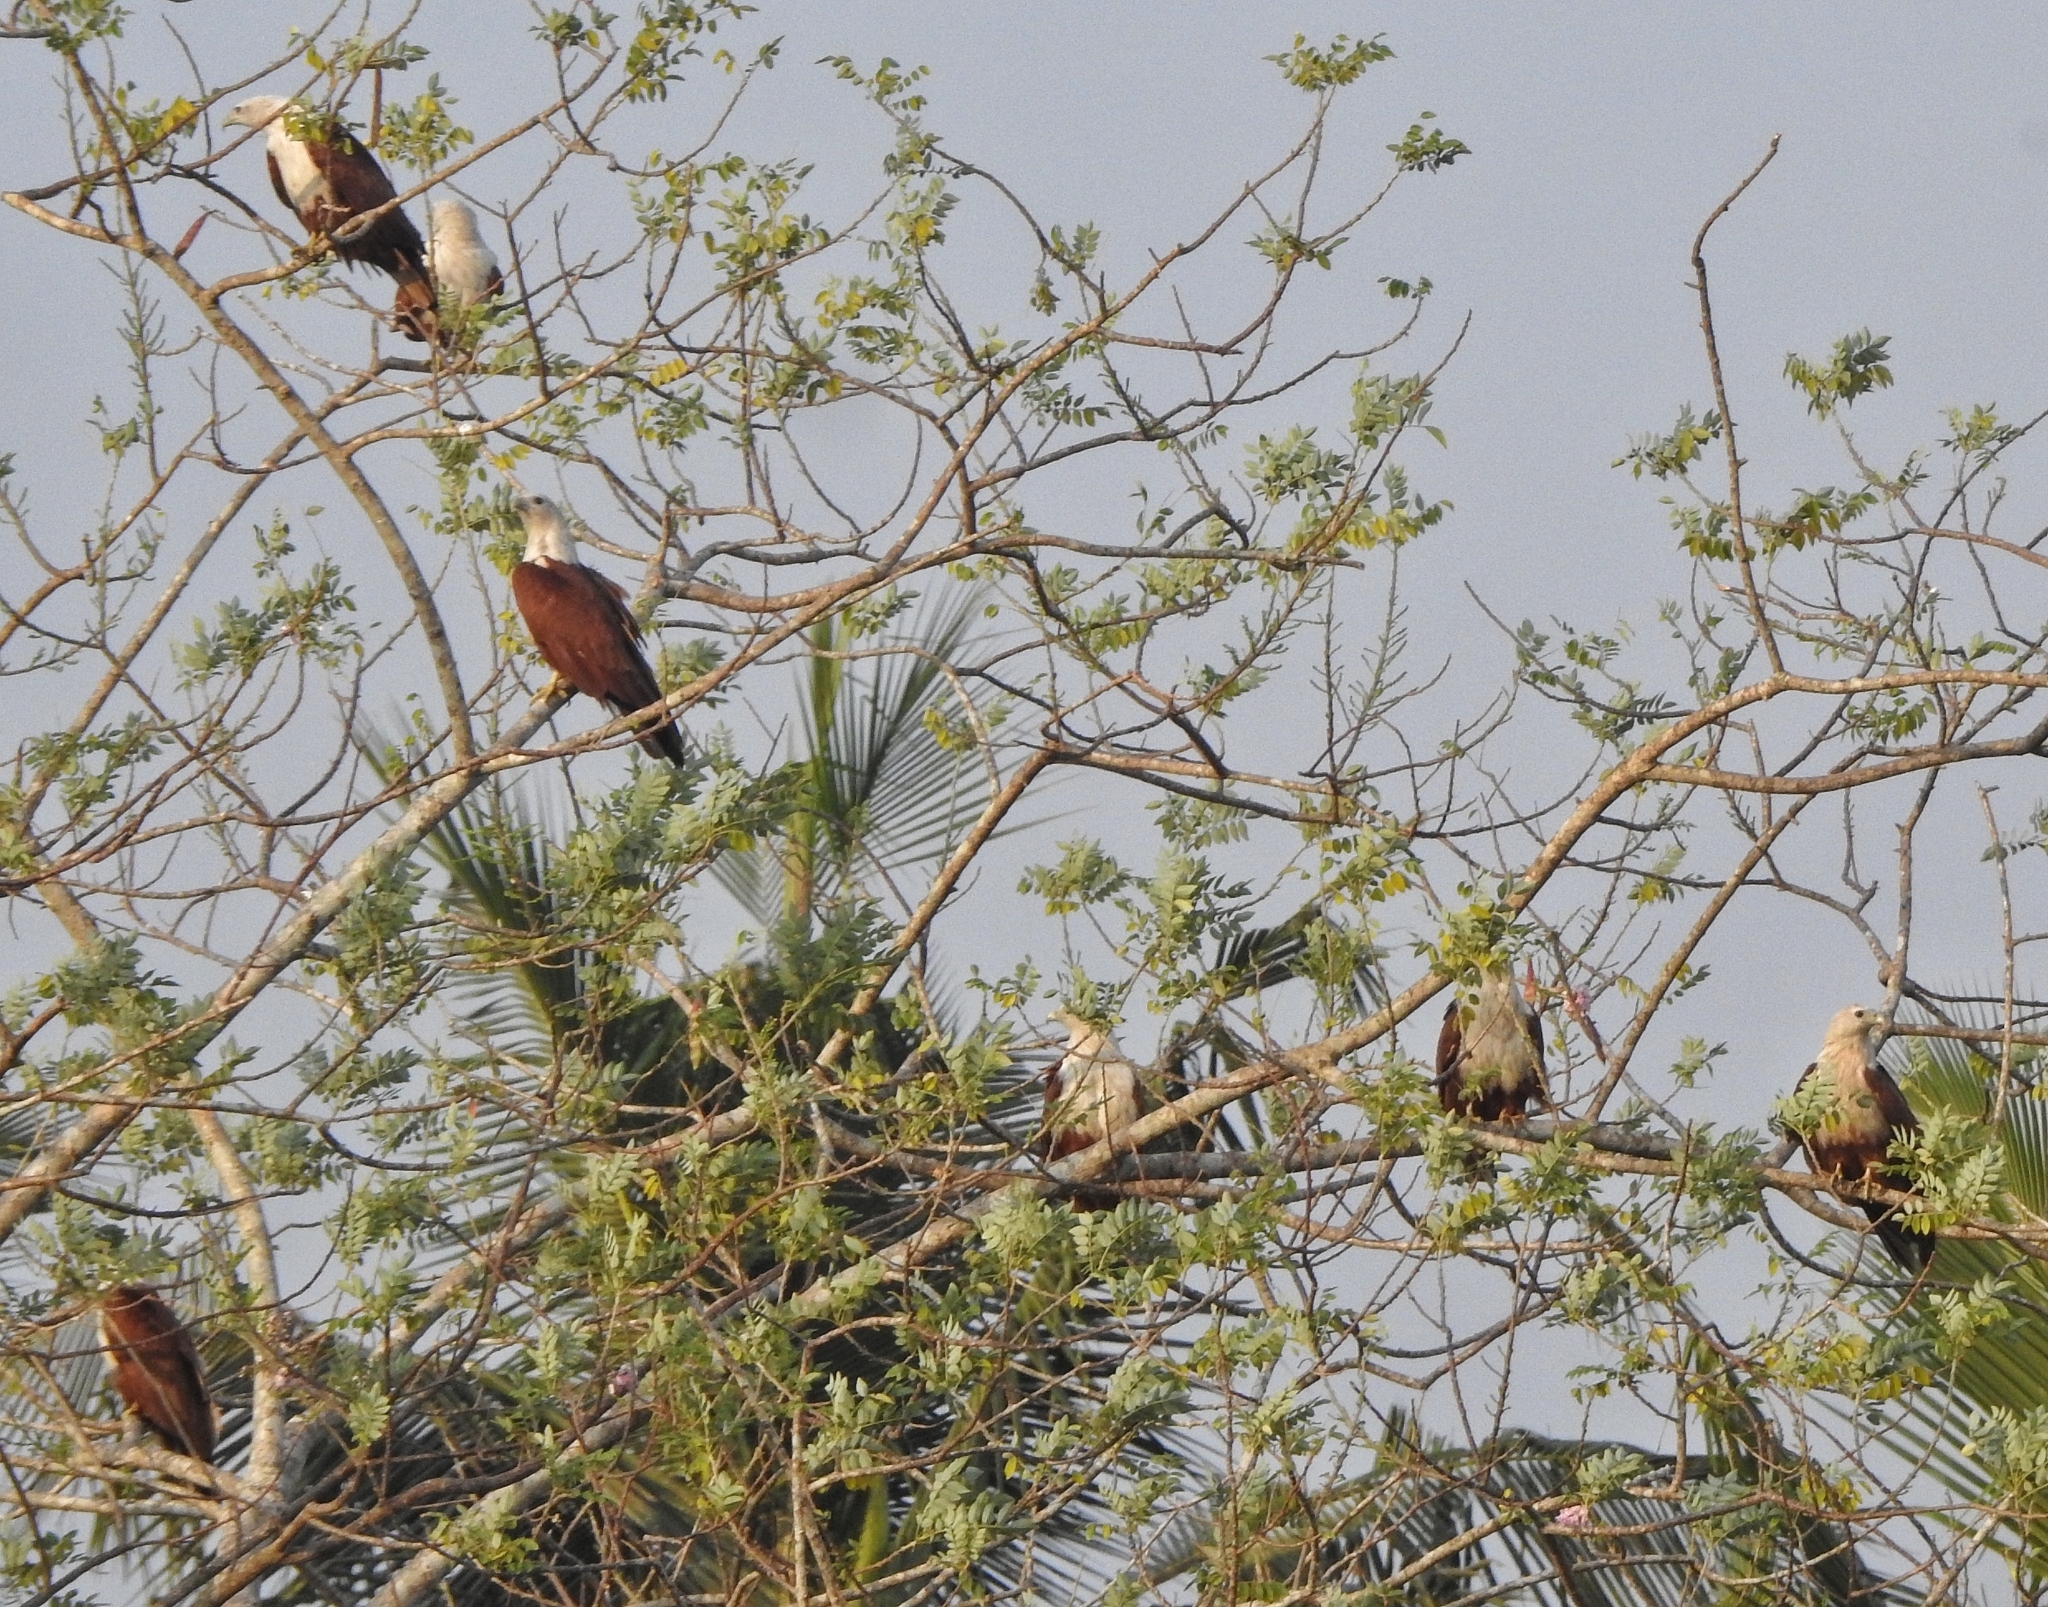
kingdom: Animalia
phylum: Chordata
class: Aves
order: Accipitriformes
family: Accipitridae
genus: Haliastur
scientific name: Haliastur indus
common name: Brahminy kite
